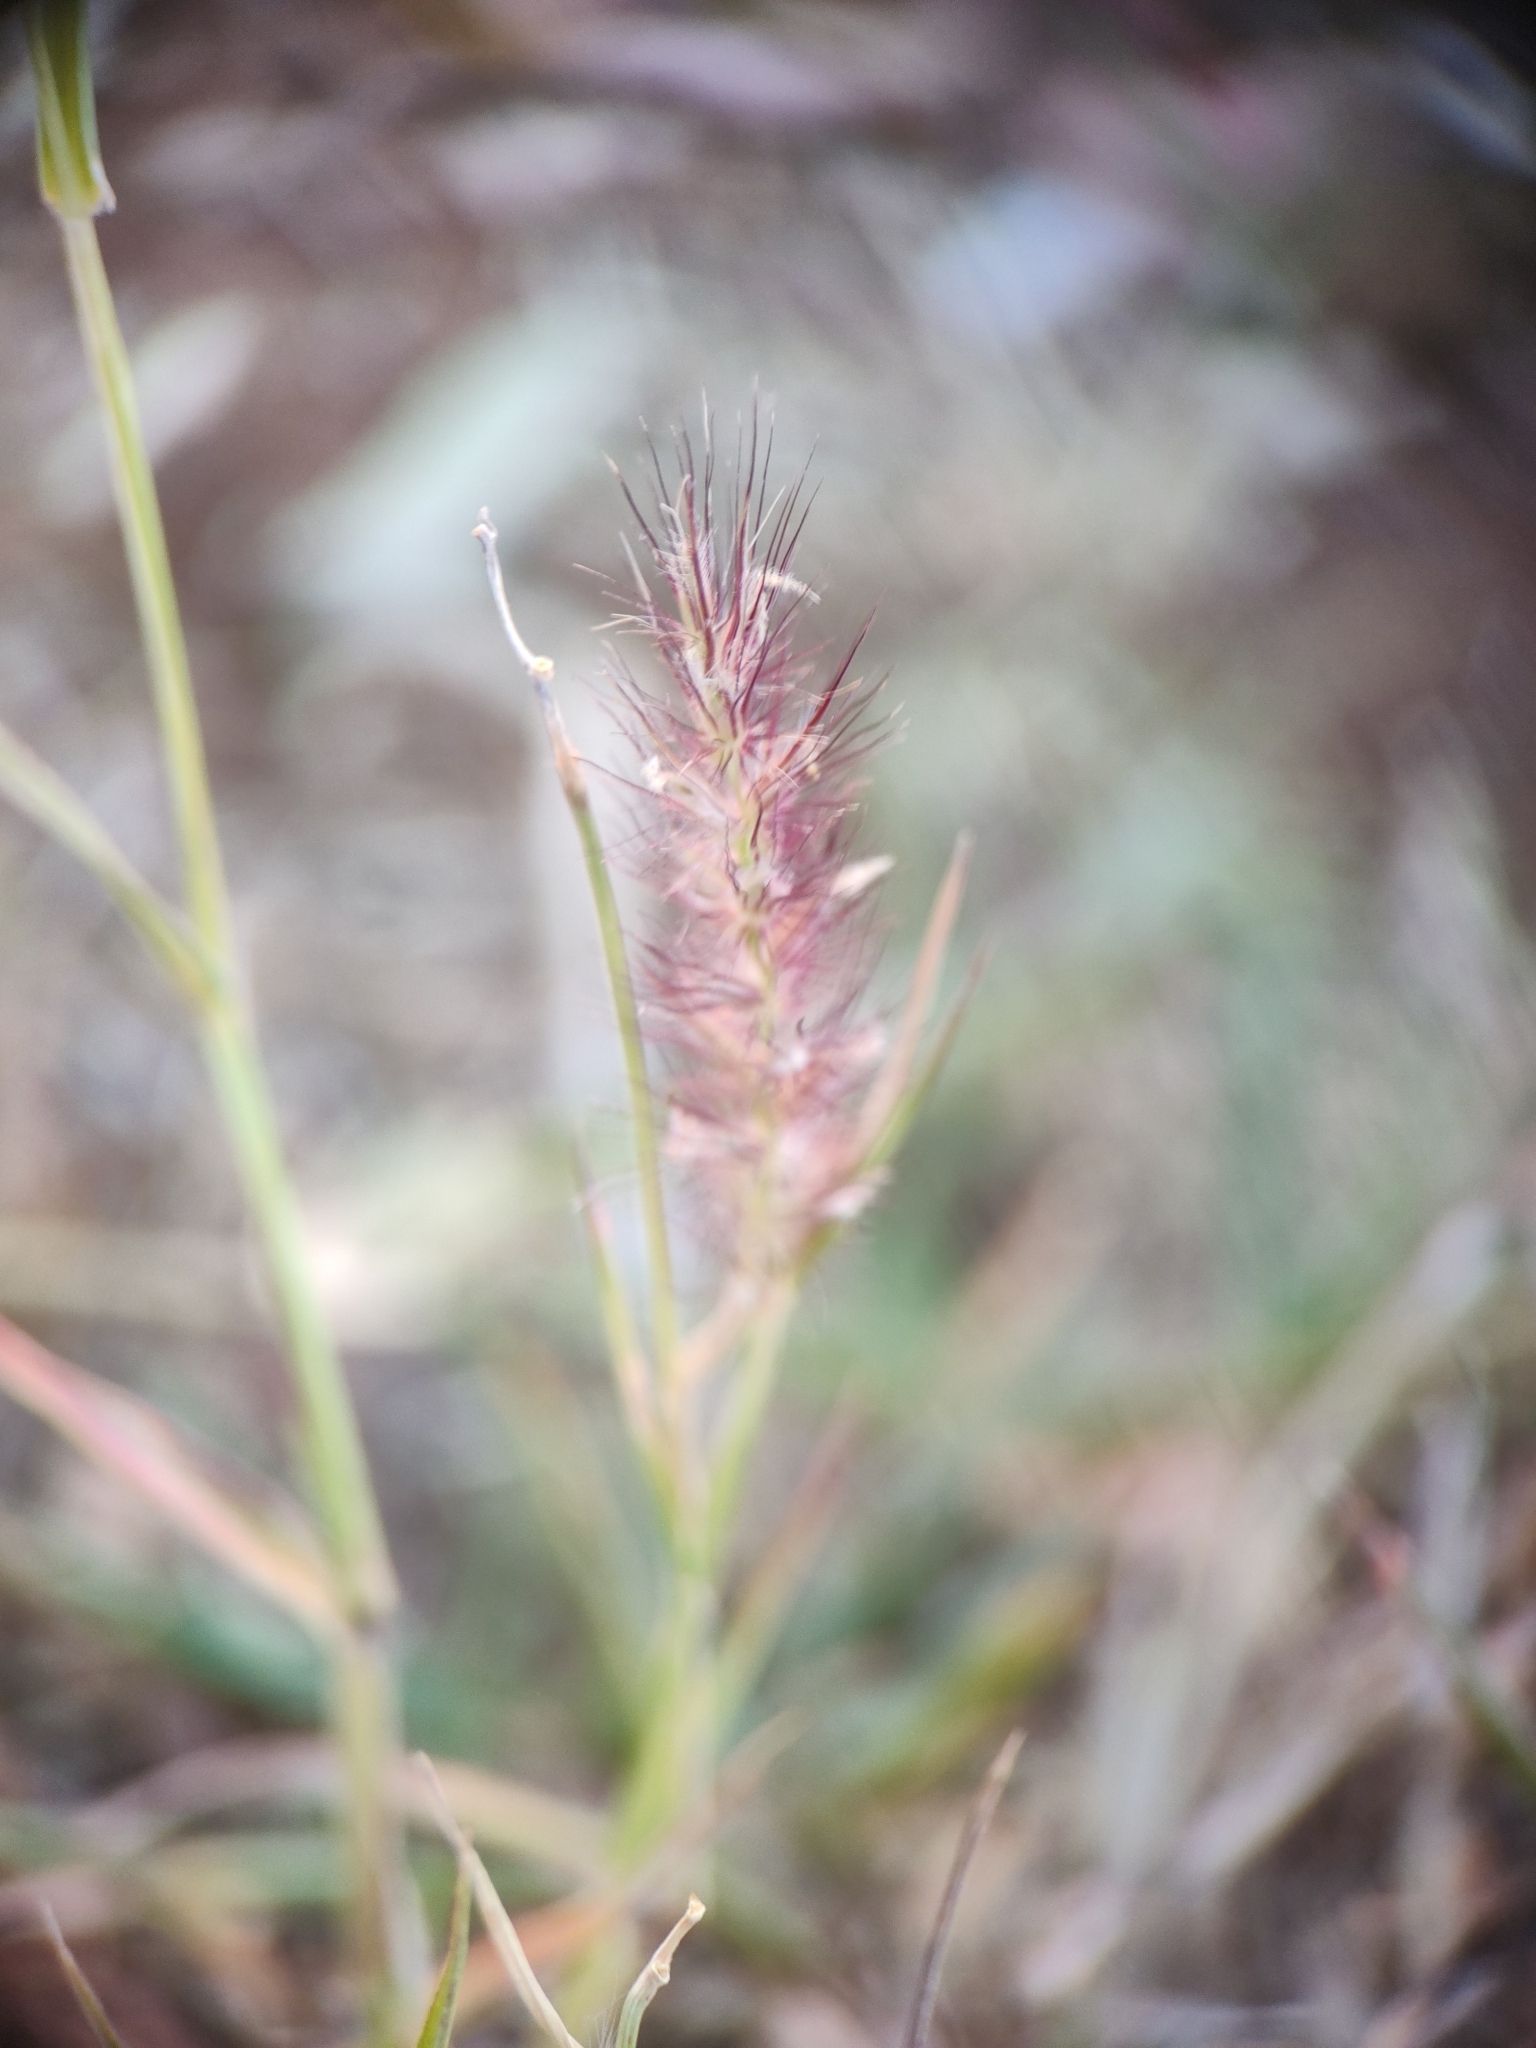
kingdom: Plantae
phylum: Tracheophyta
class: Liliopsida
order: Poales
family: Poaceae
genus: Cenchrus
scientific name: Cenchrus ciliaris
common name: Buffelgrass
